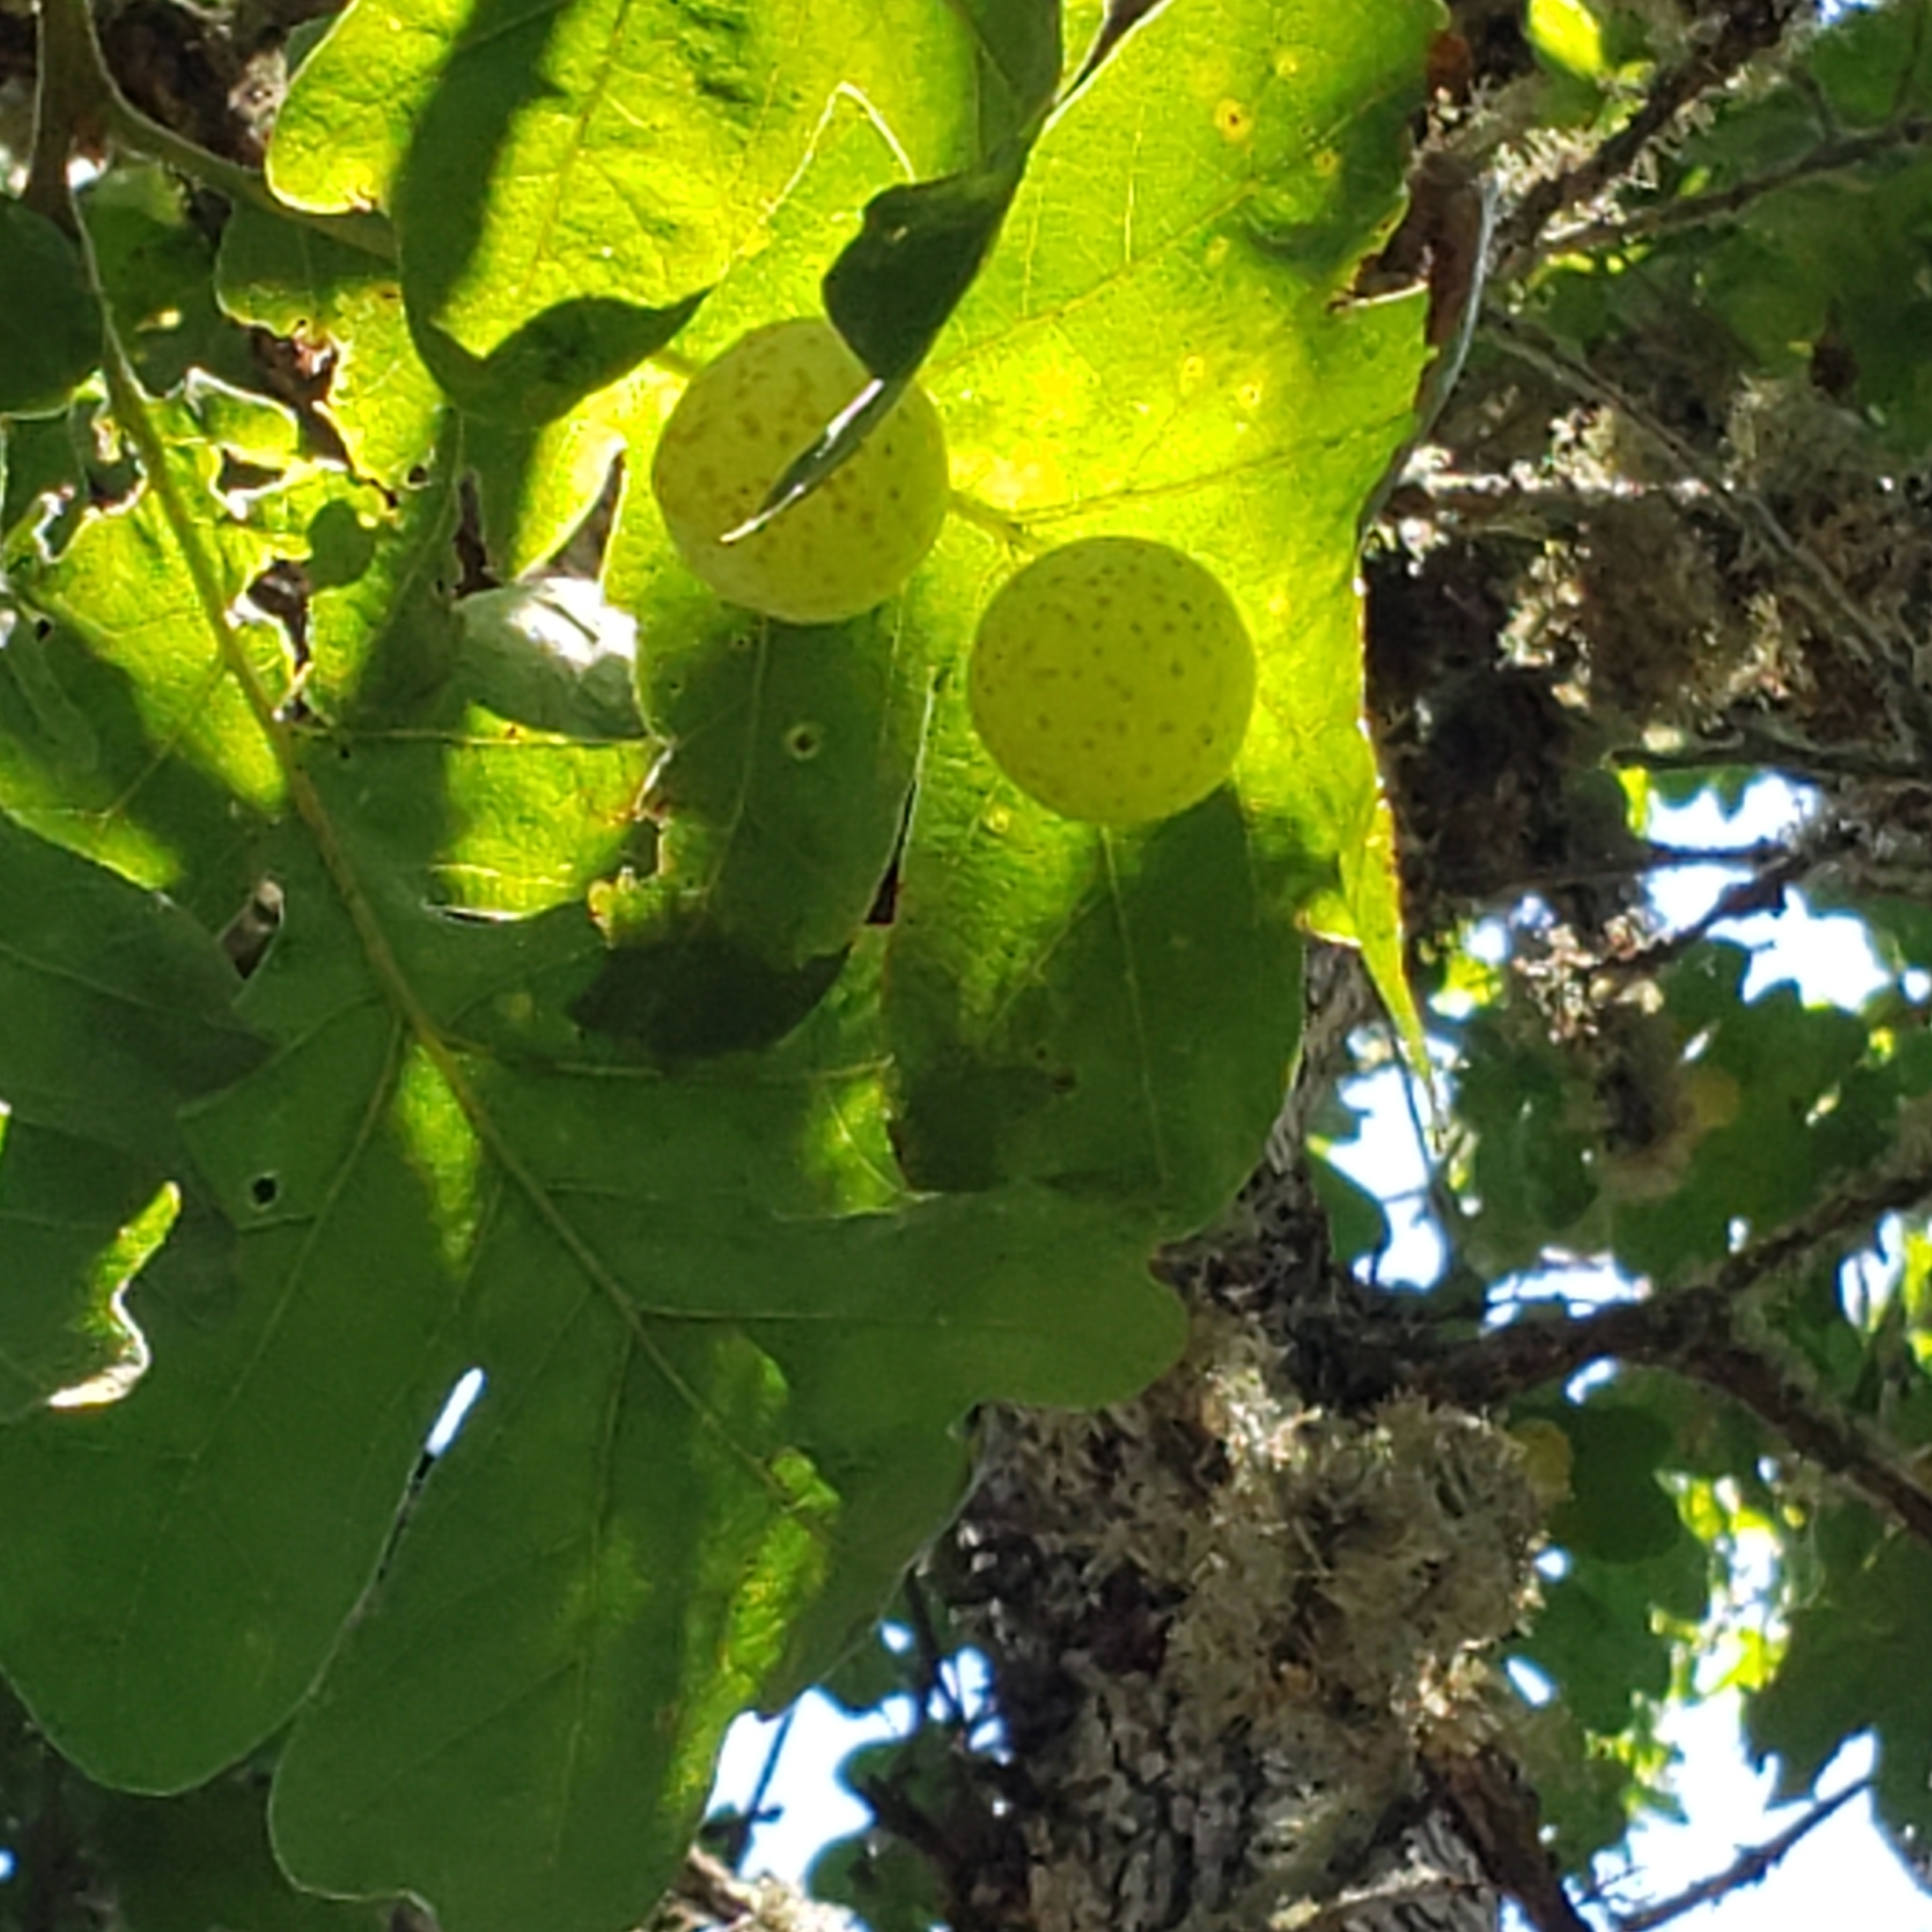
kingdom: Plantae
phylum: Tracheophyta
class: Magnoliopsida
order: Fagales
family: Fagaceae
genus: Quercus
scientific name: Quercus garryana
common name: Garry oak
